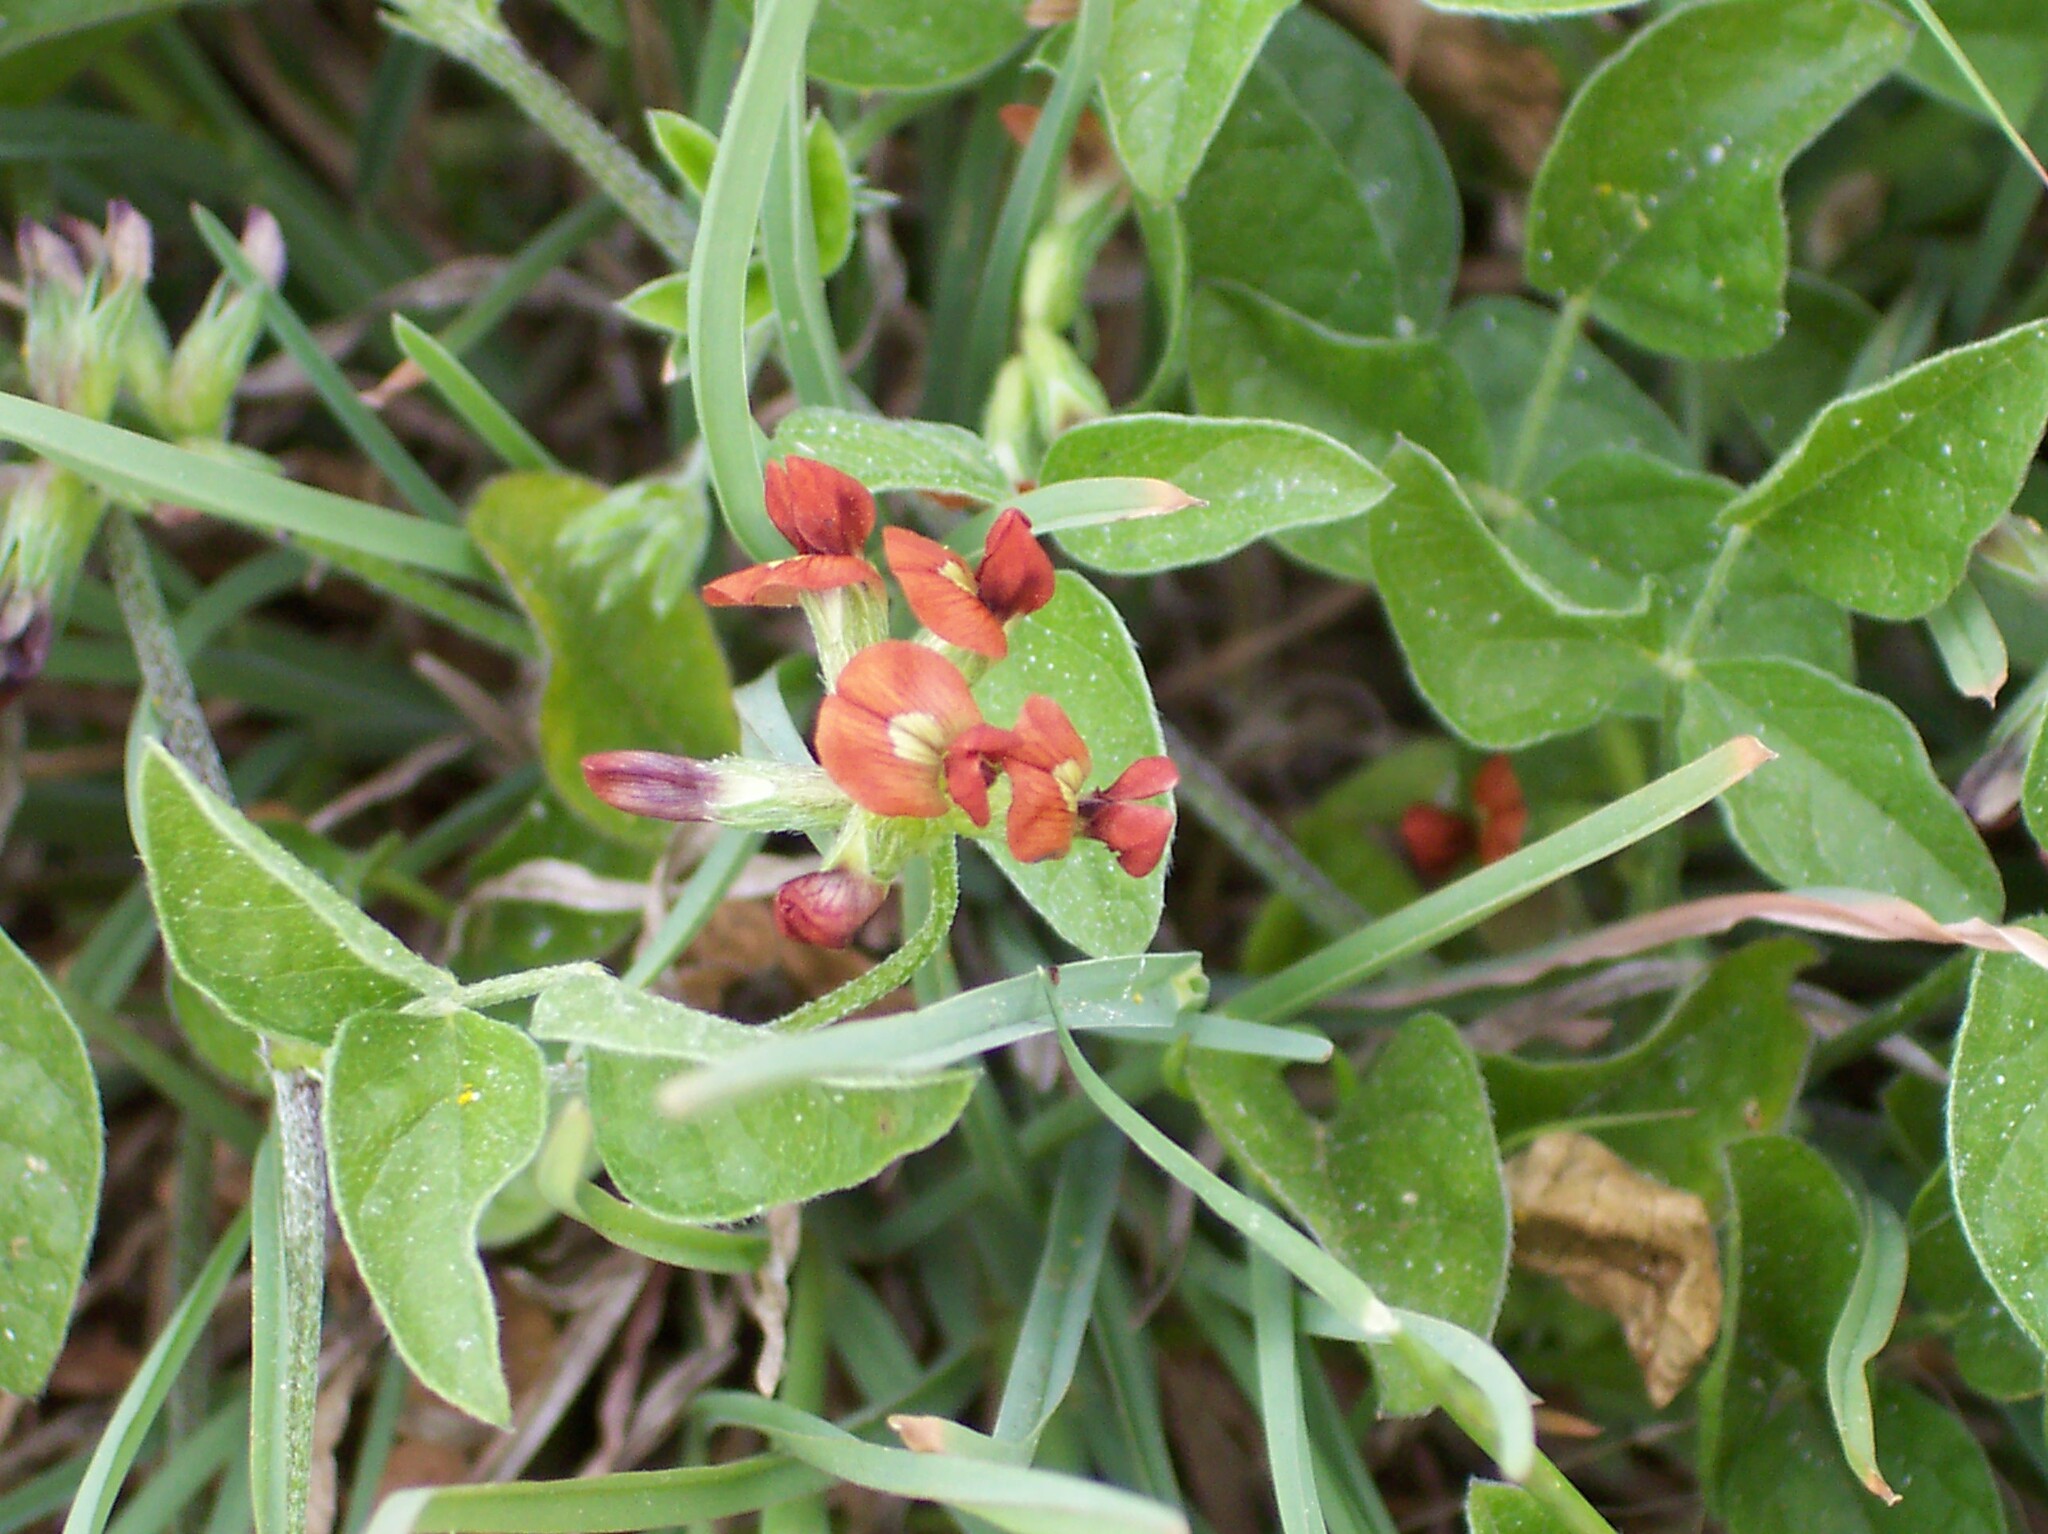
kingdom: Plantae
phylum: Tracheophyta
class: Magnoliopsida
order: Fabales
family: Fabaceae
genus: Pediomelum
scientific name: Pediomelum rhombifolium
